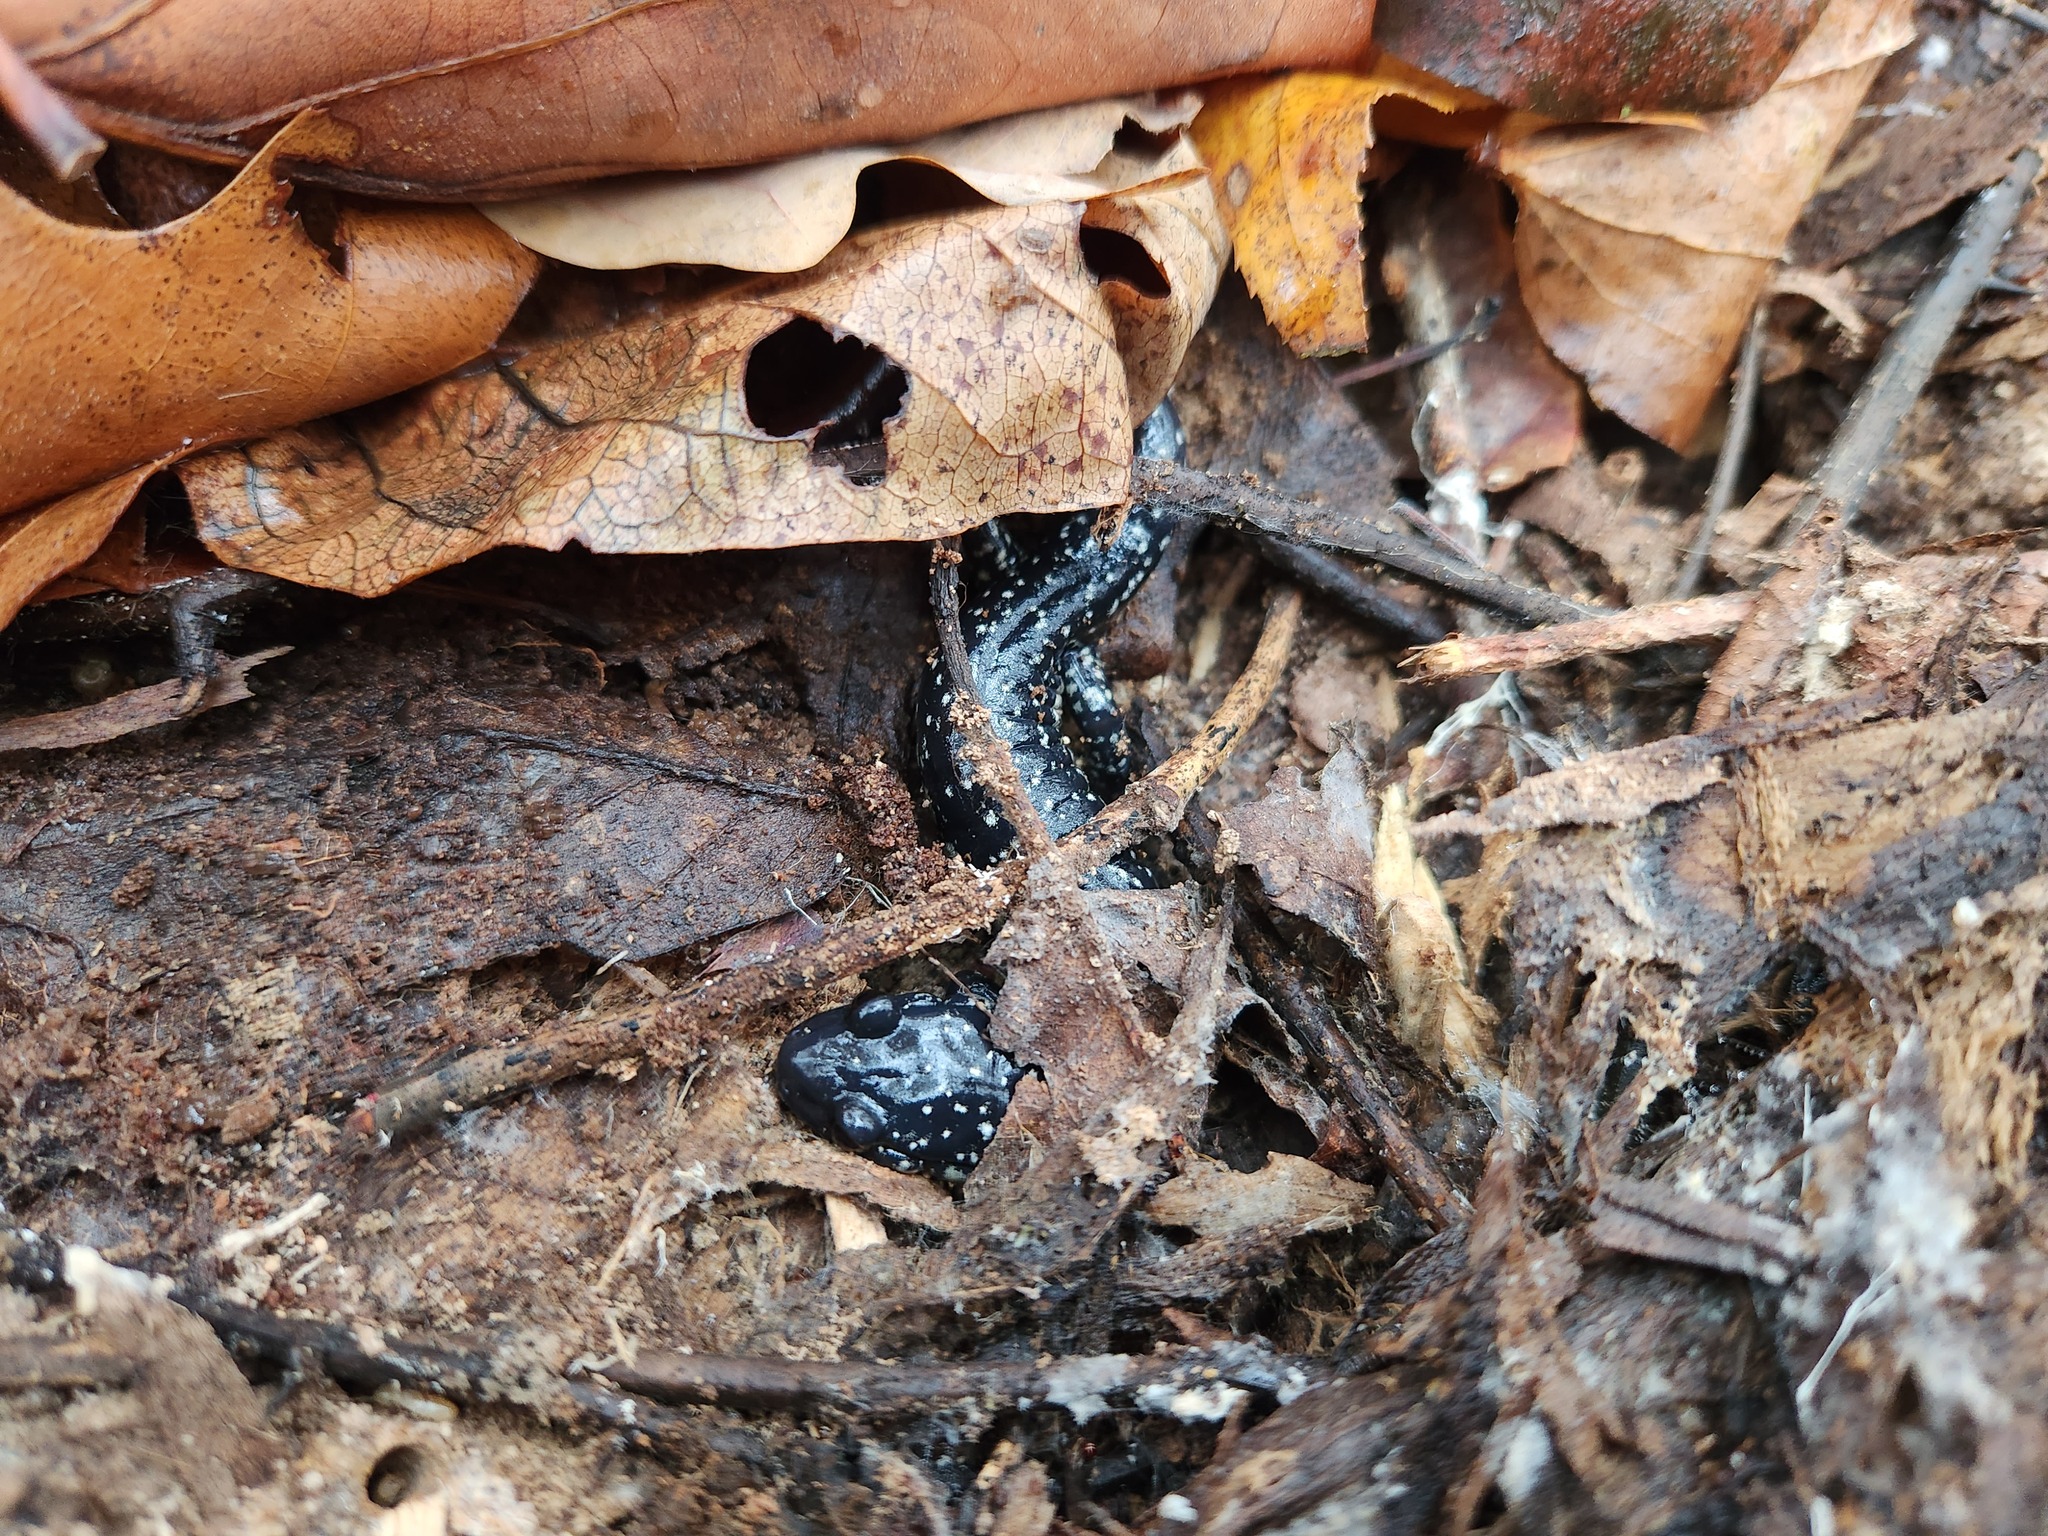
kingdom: Animalia
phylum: Chordata
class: Amphibia
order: Caudata
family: Plethodontidae
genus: Plethodon
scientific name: Plethodon glutinosus
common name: Northern slimy salamander
